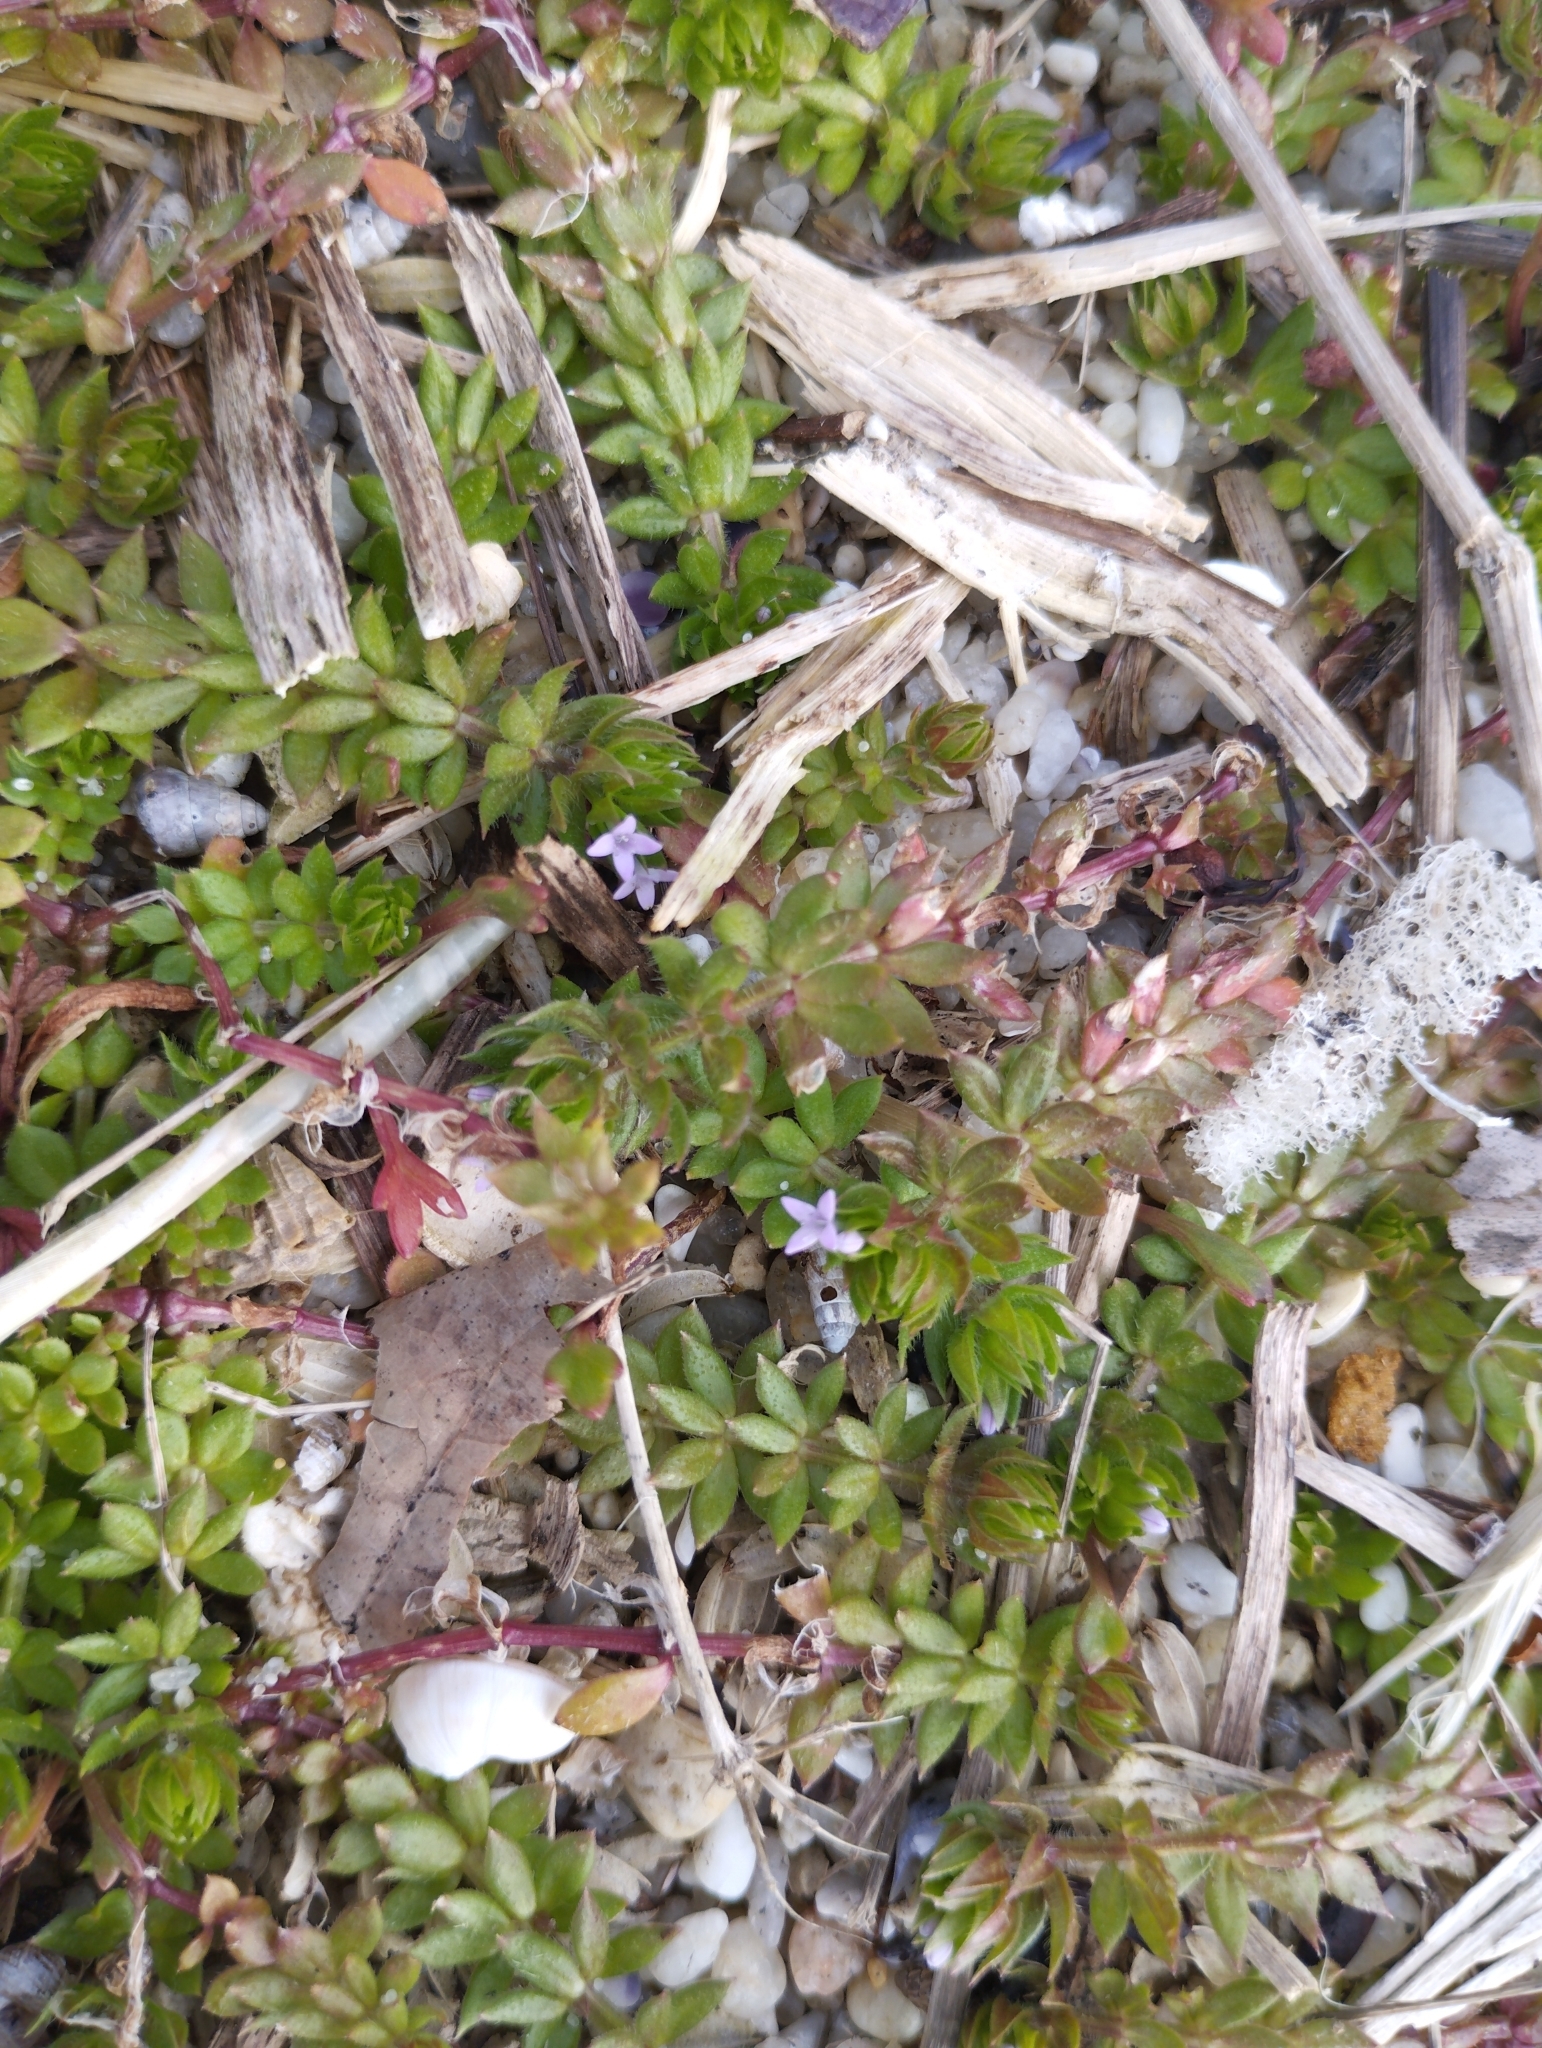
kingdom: Plantae
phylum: Tracheophyta
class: Magnoliopsida
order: Gentianales
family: Rubiaceae
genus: Sherardia
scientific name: Sherardia arvensis
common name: Field madder
